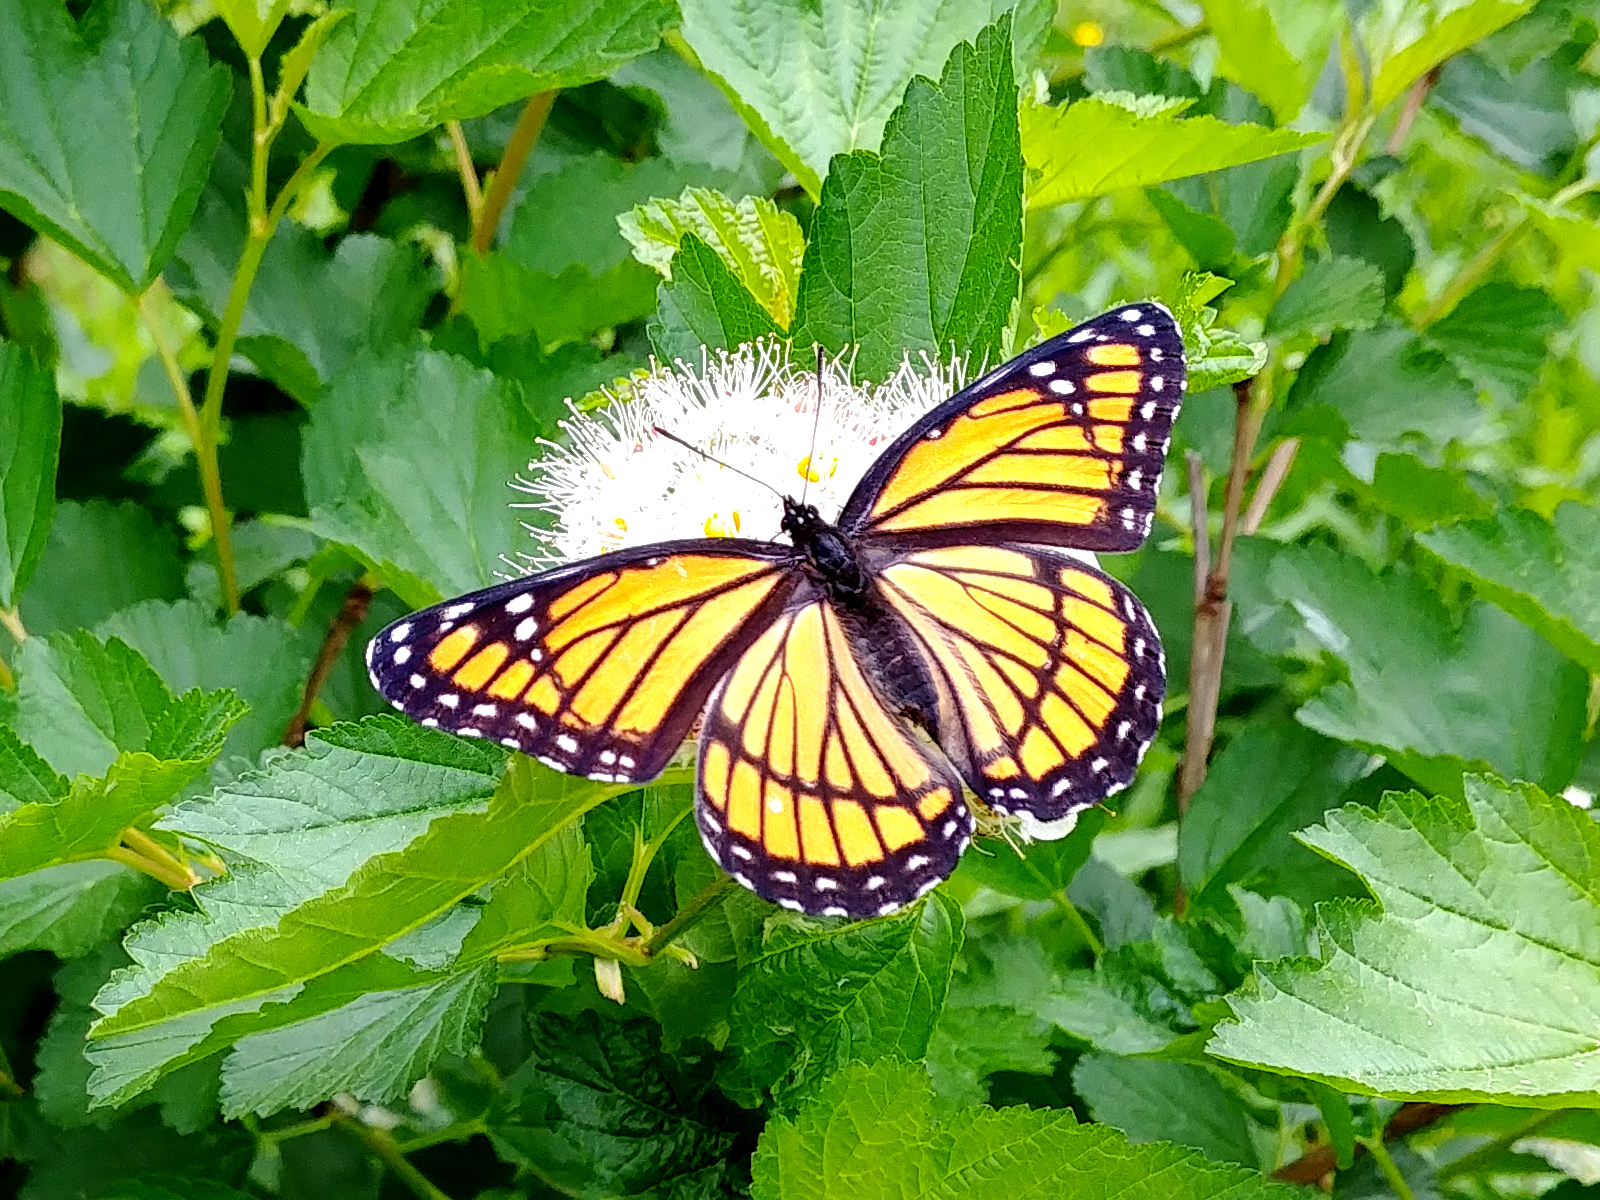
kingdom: Animalia
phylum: Arthropoda
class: Insecta
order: Lepidoptera
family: Nymphalidae
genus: Limenitis
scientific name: Limenitis archippus
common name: Viceroy
